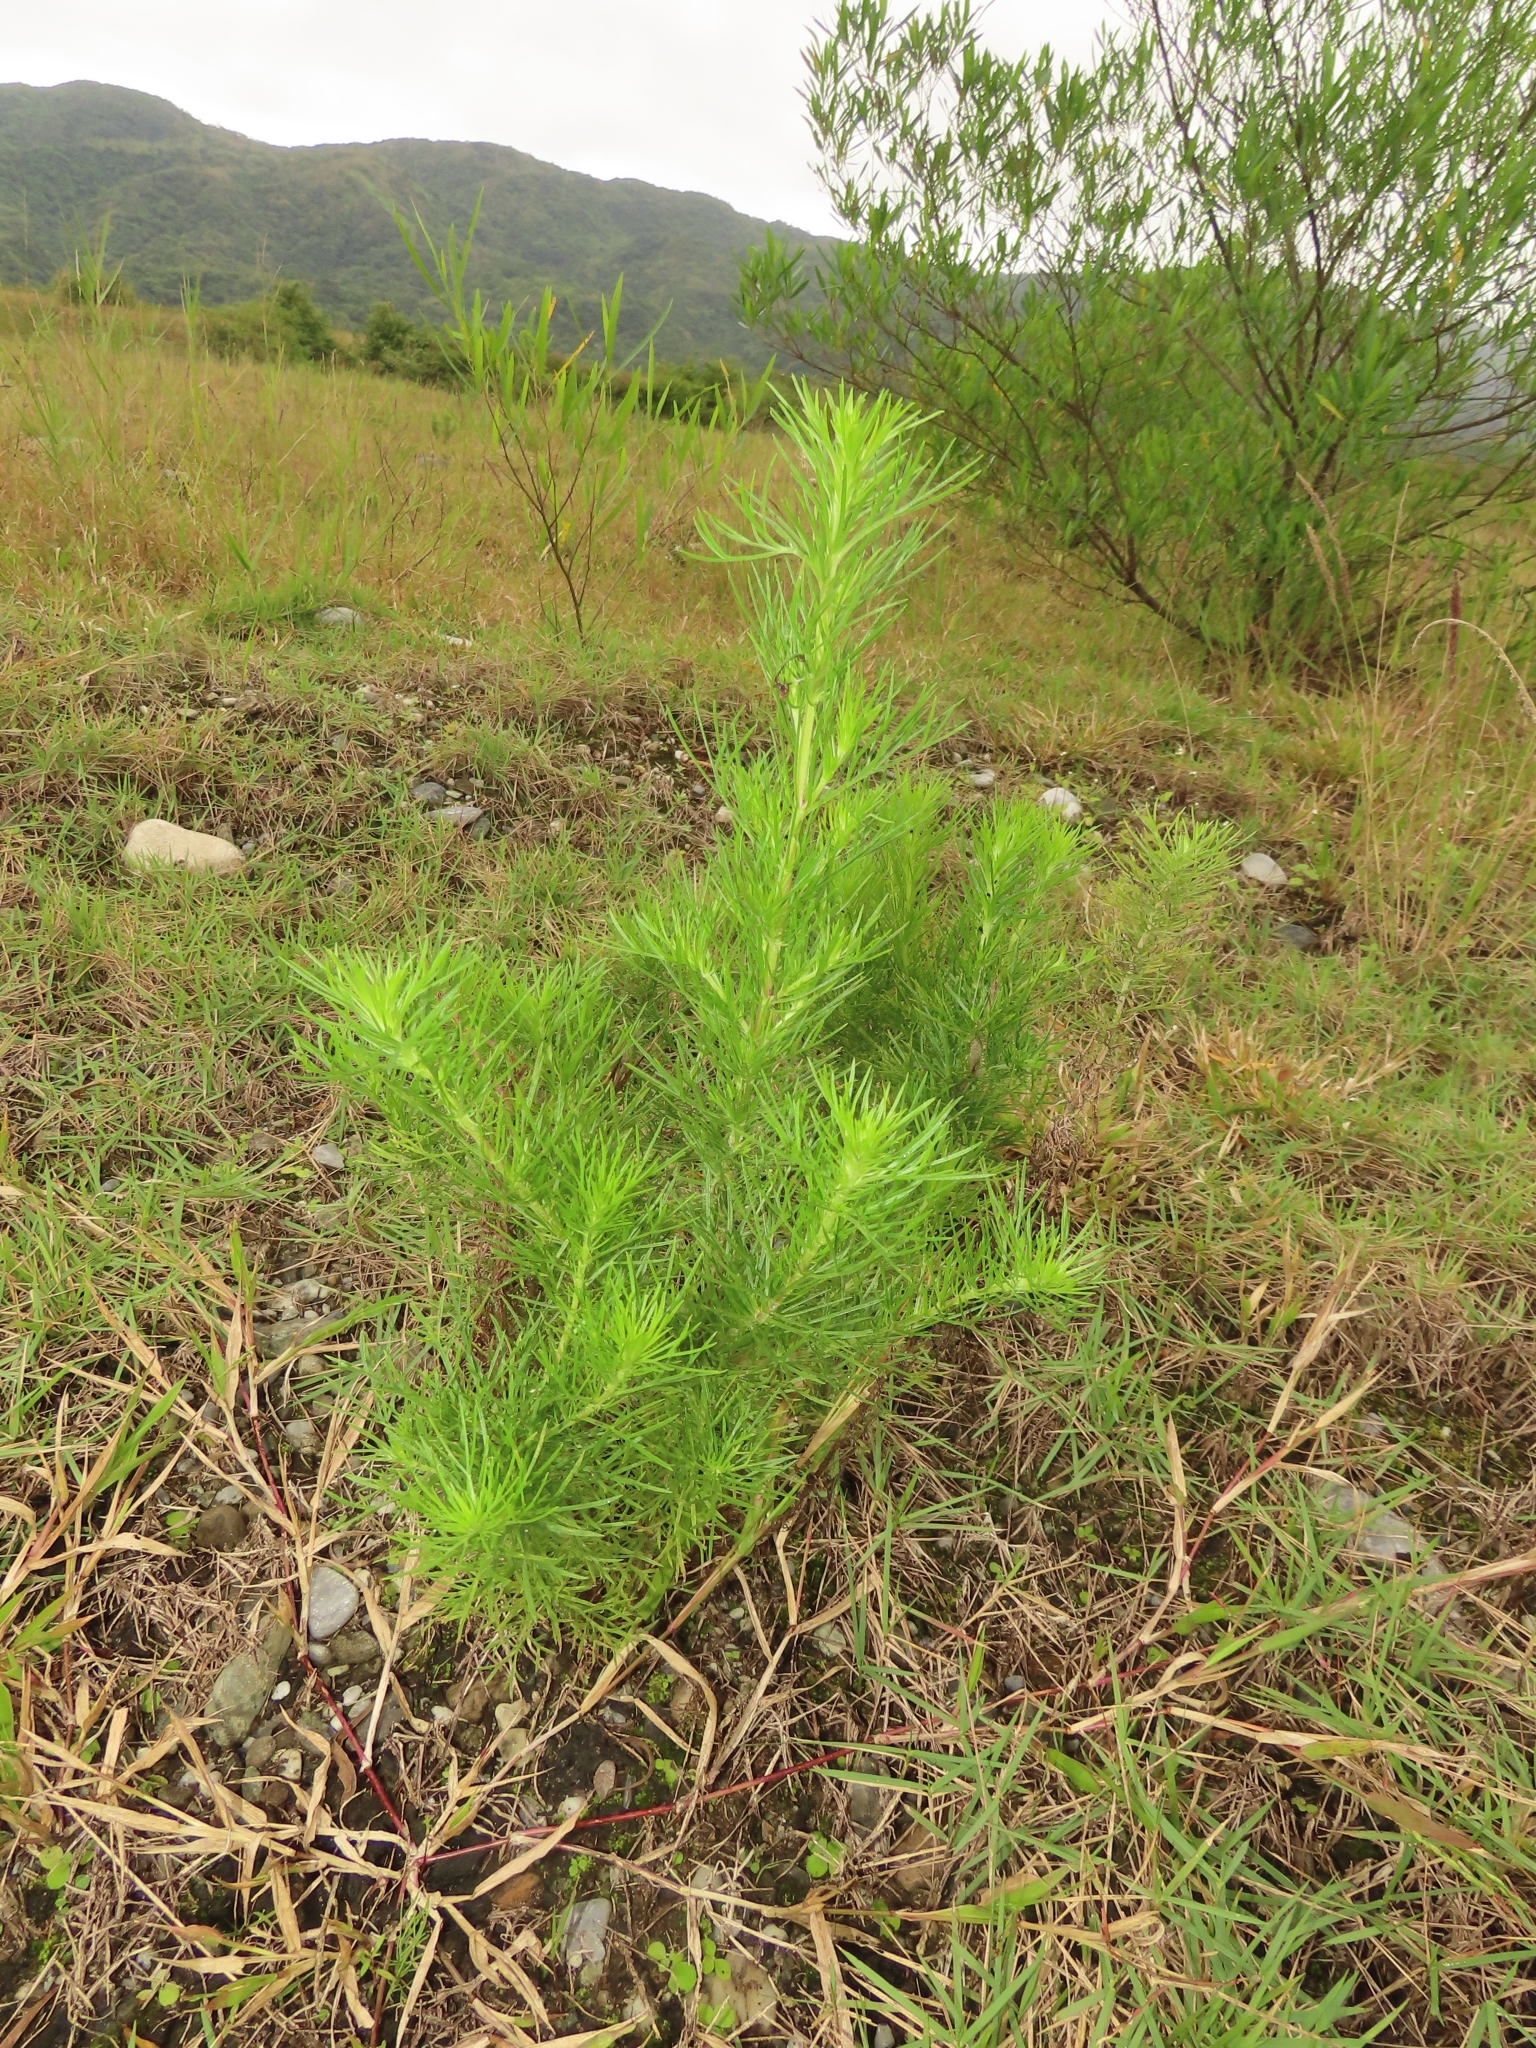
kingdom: Plantae
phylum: Tracheophyta
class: Magnoliopsida
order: Asterales
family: Asteraceae
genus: Artemisia
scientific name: Artemisia capillaris
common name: Yin-chen wormwood
